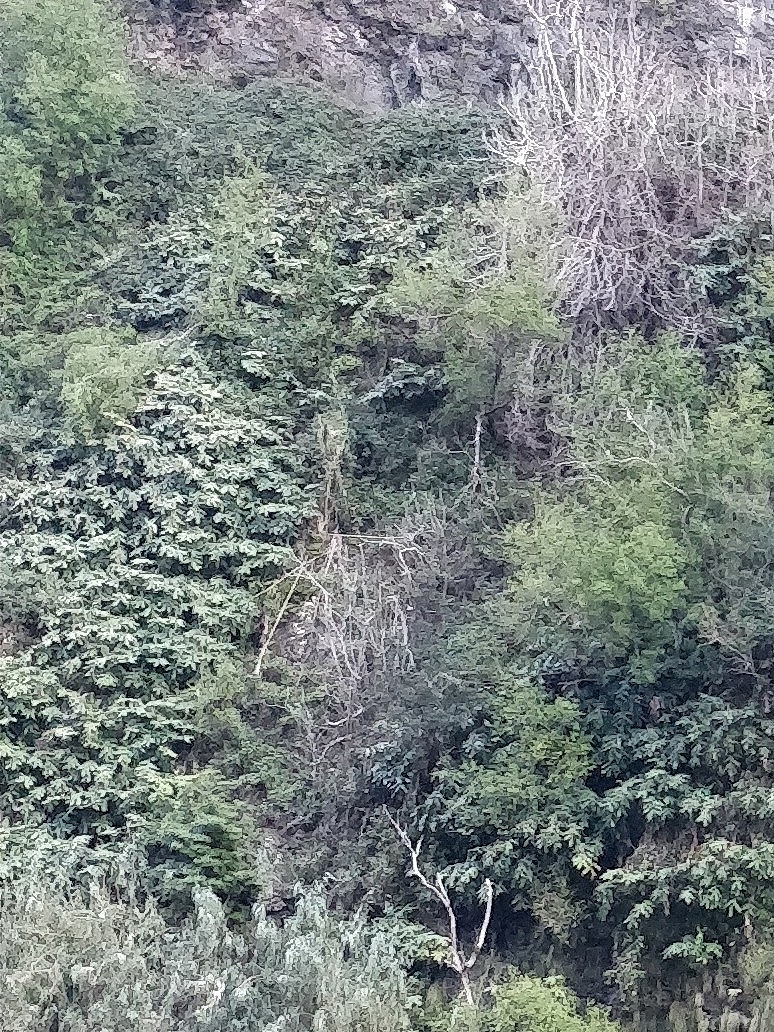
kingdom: Plantae
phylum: Tracheophyta
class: Liliopsida
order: Zingiberales
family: Zingiberaceae
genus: Hedychium
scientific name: Hedychium gardnerianum
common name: Himalayan ginger
